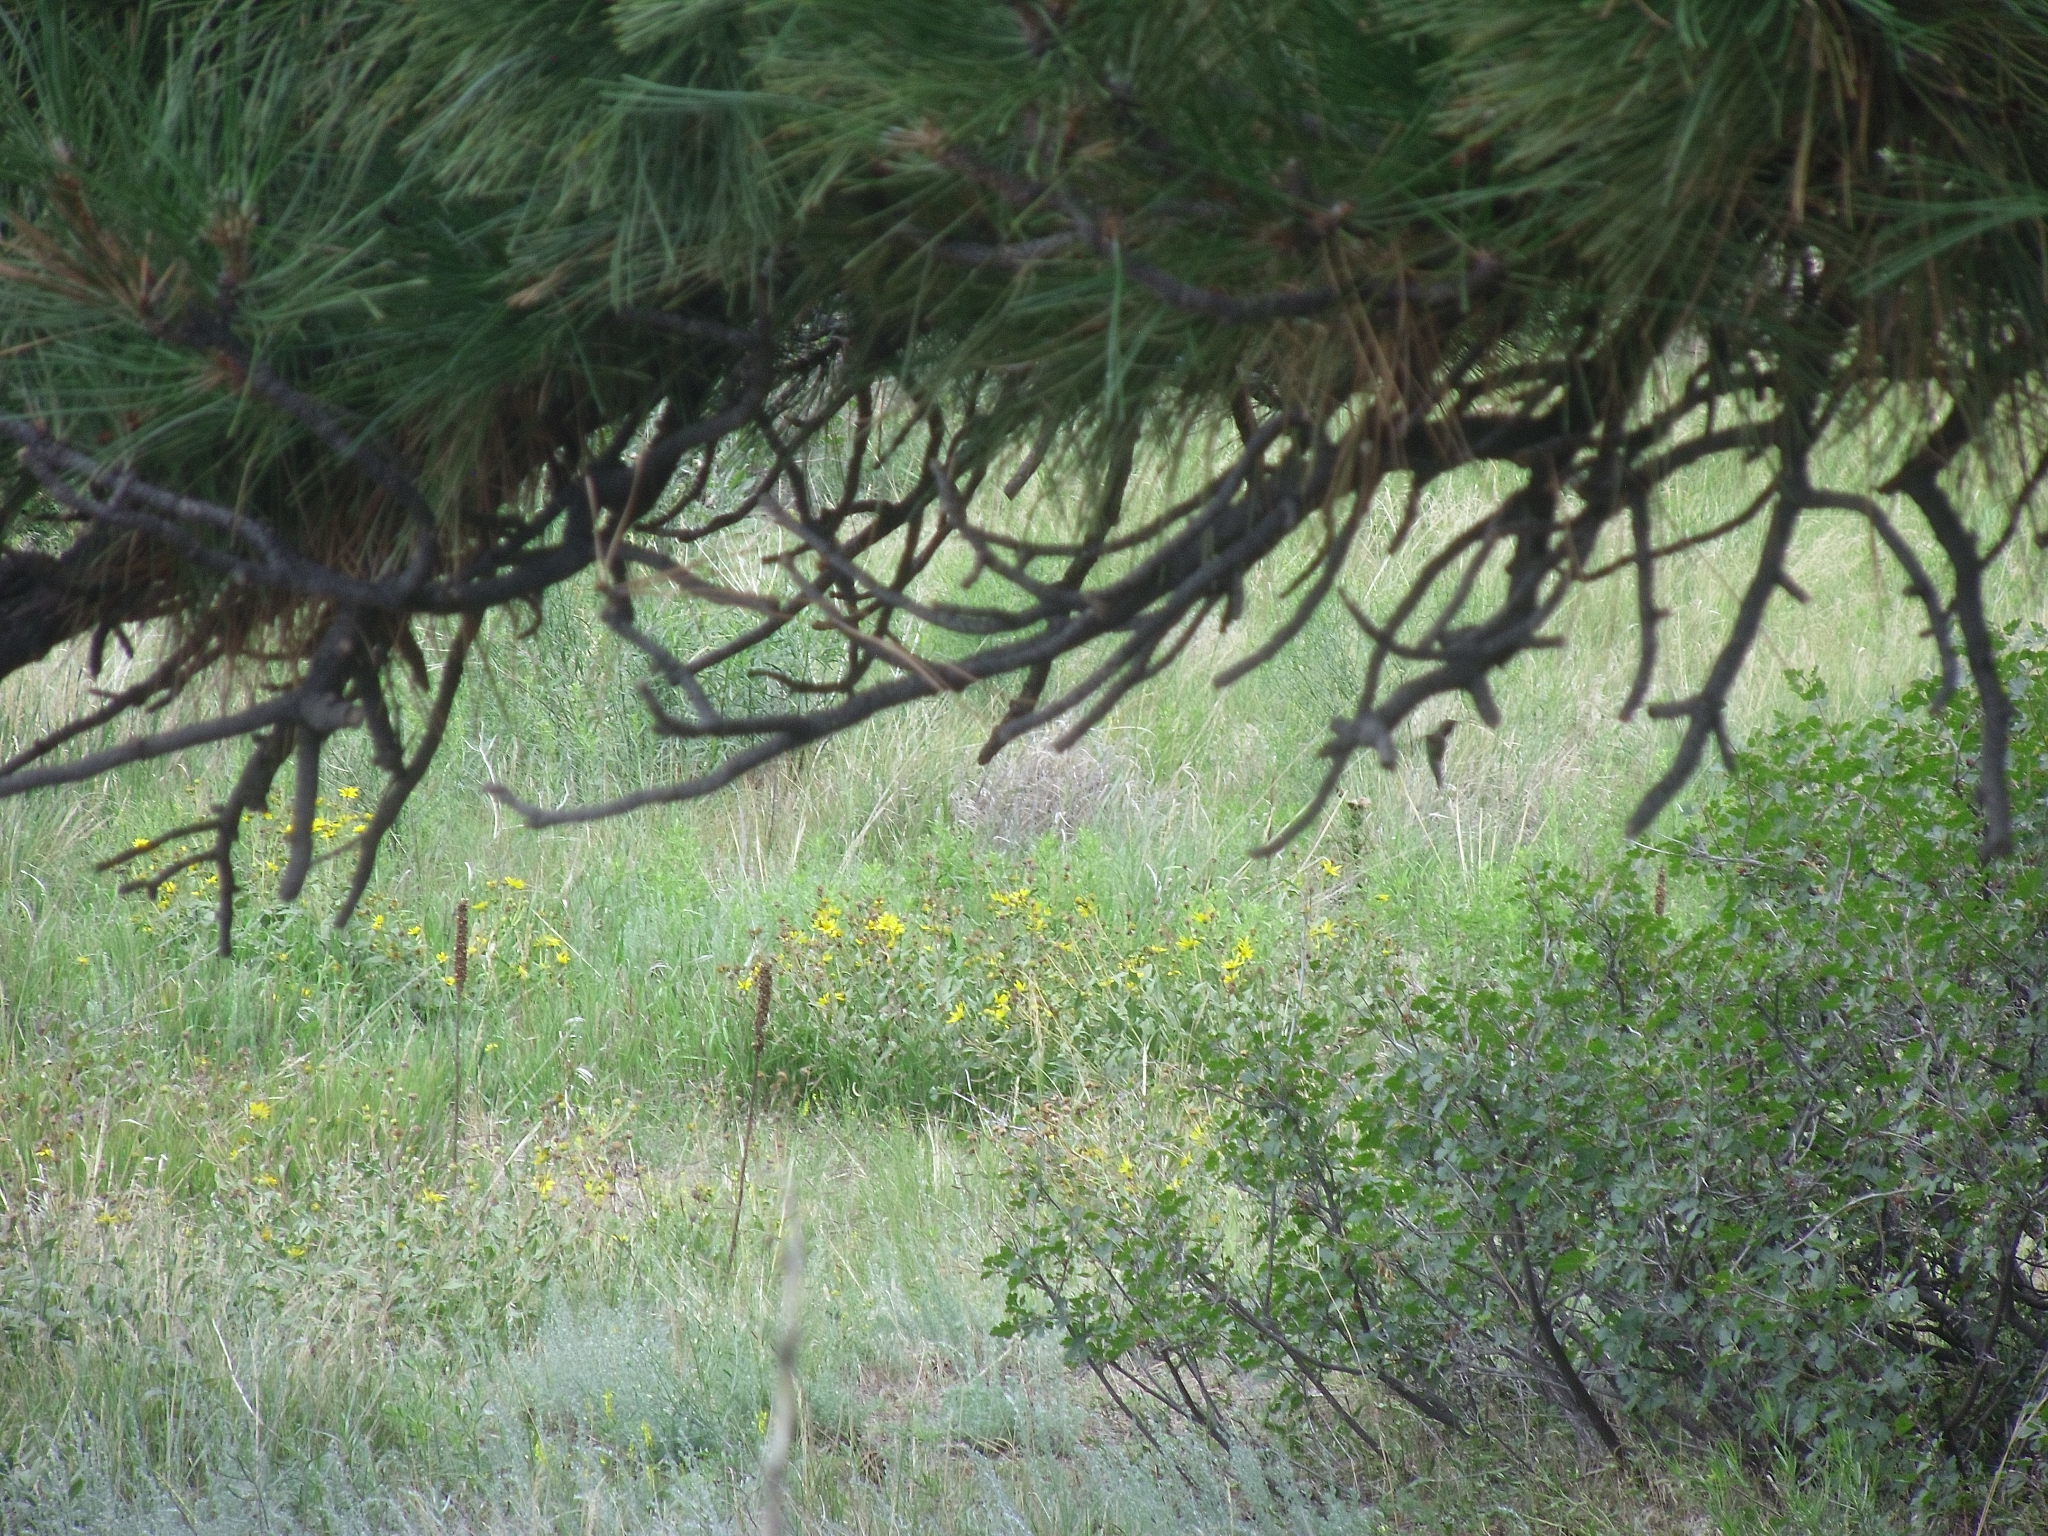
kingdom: Animalia
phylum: Chordata
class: Aves
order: Apodiformes
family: Trochilidae
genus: Selasphorus
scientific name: Selasphorus platycercus
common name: Broad-tailed hummingbird
